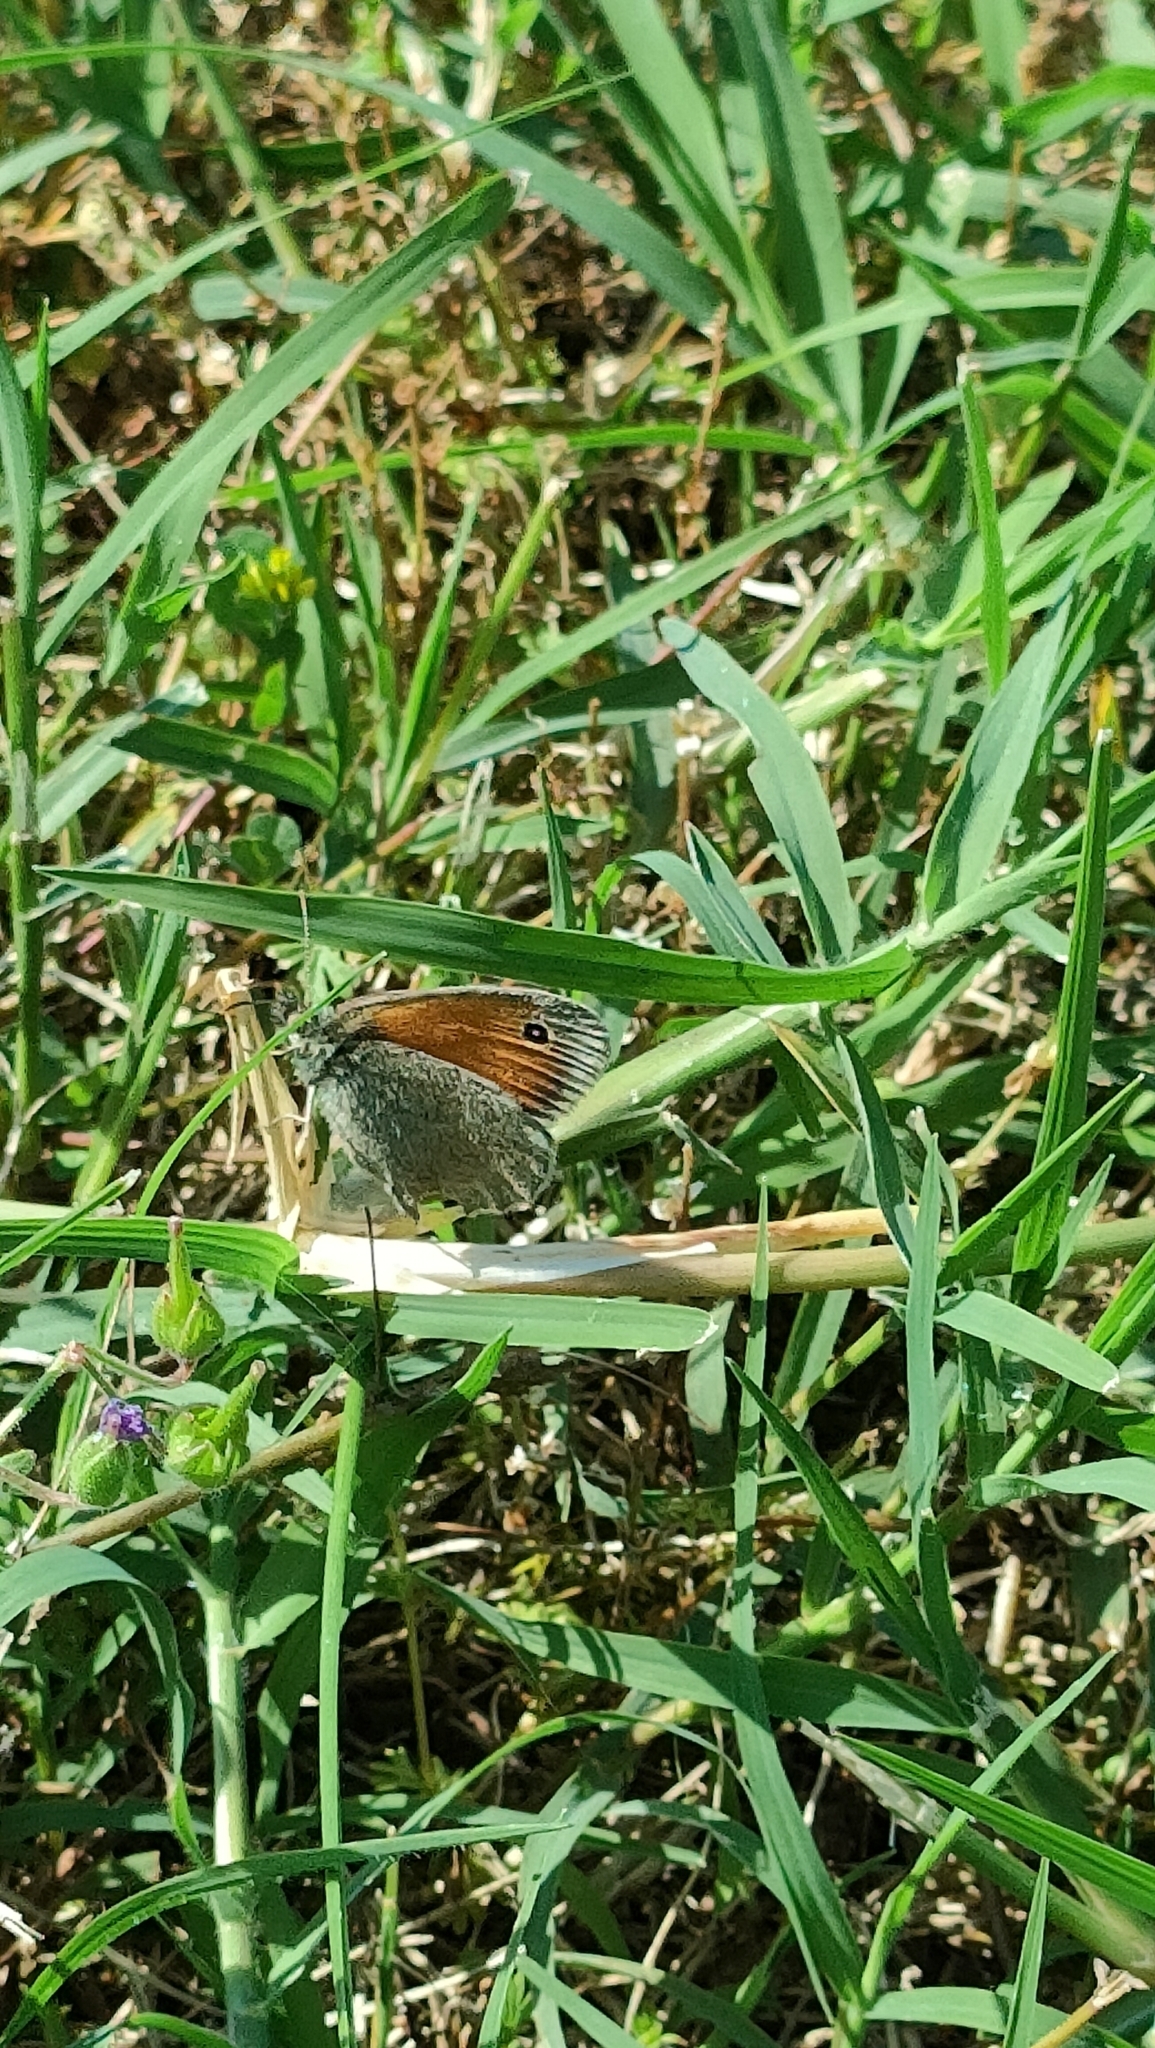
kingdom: Animalia
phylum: Arthropoda
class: Insecta
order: Lepidoptera
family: Nymphalidae
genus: Coenonympha
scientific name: Coenonympha pamphilus
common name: Small heath
